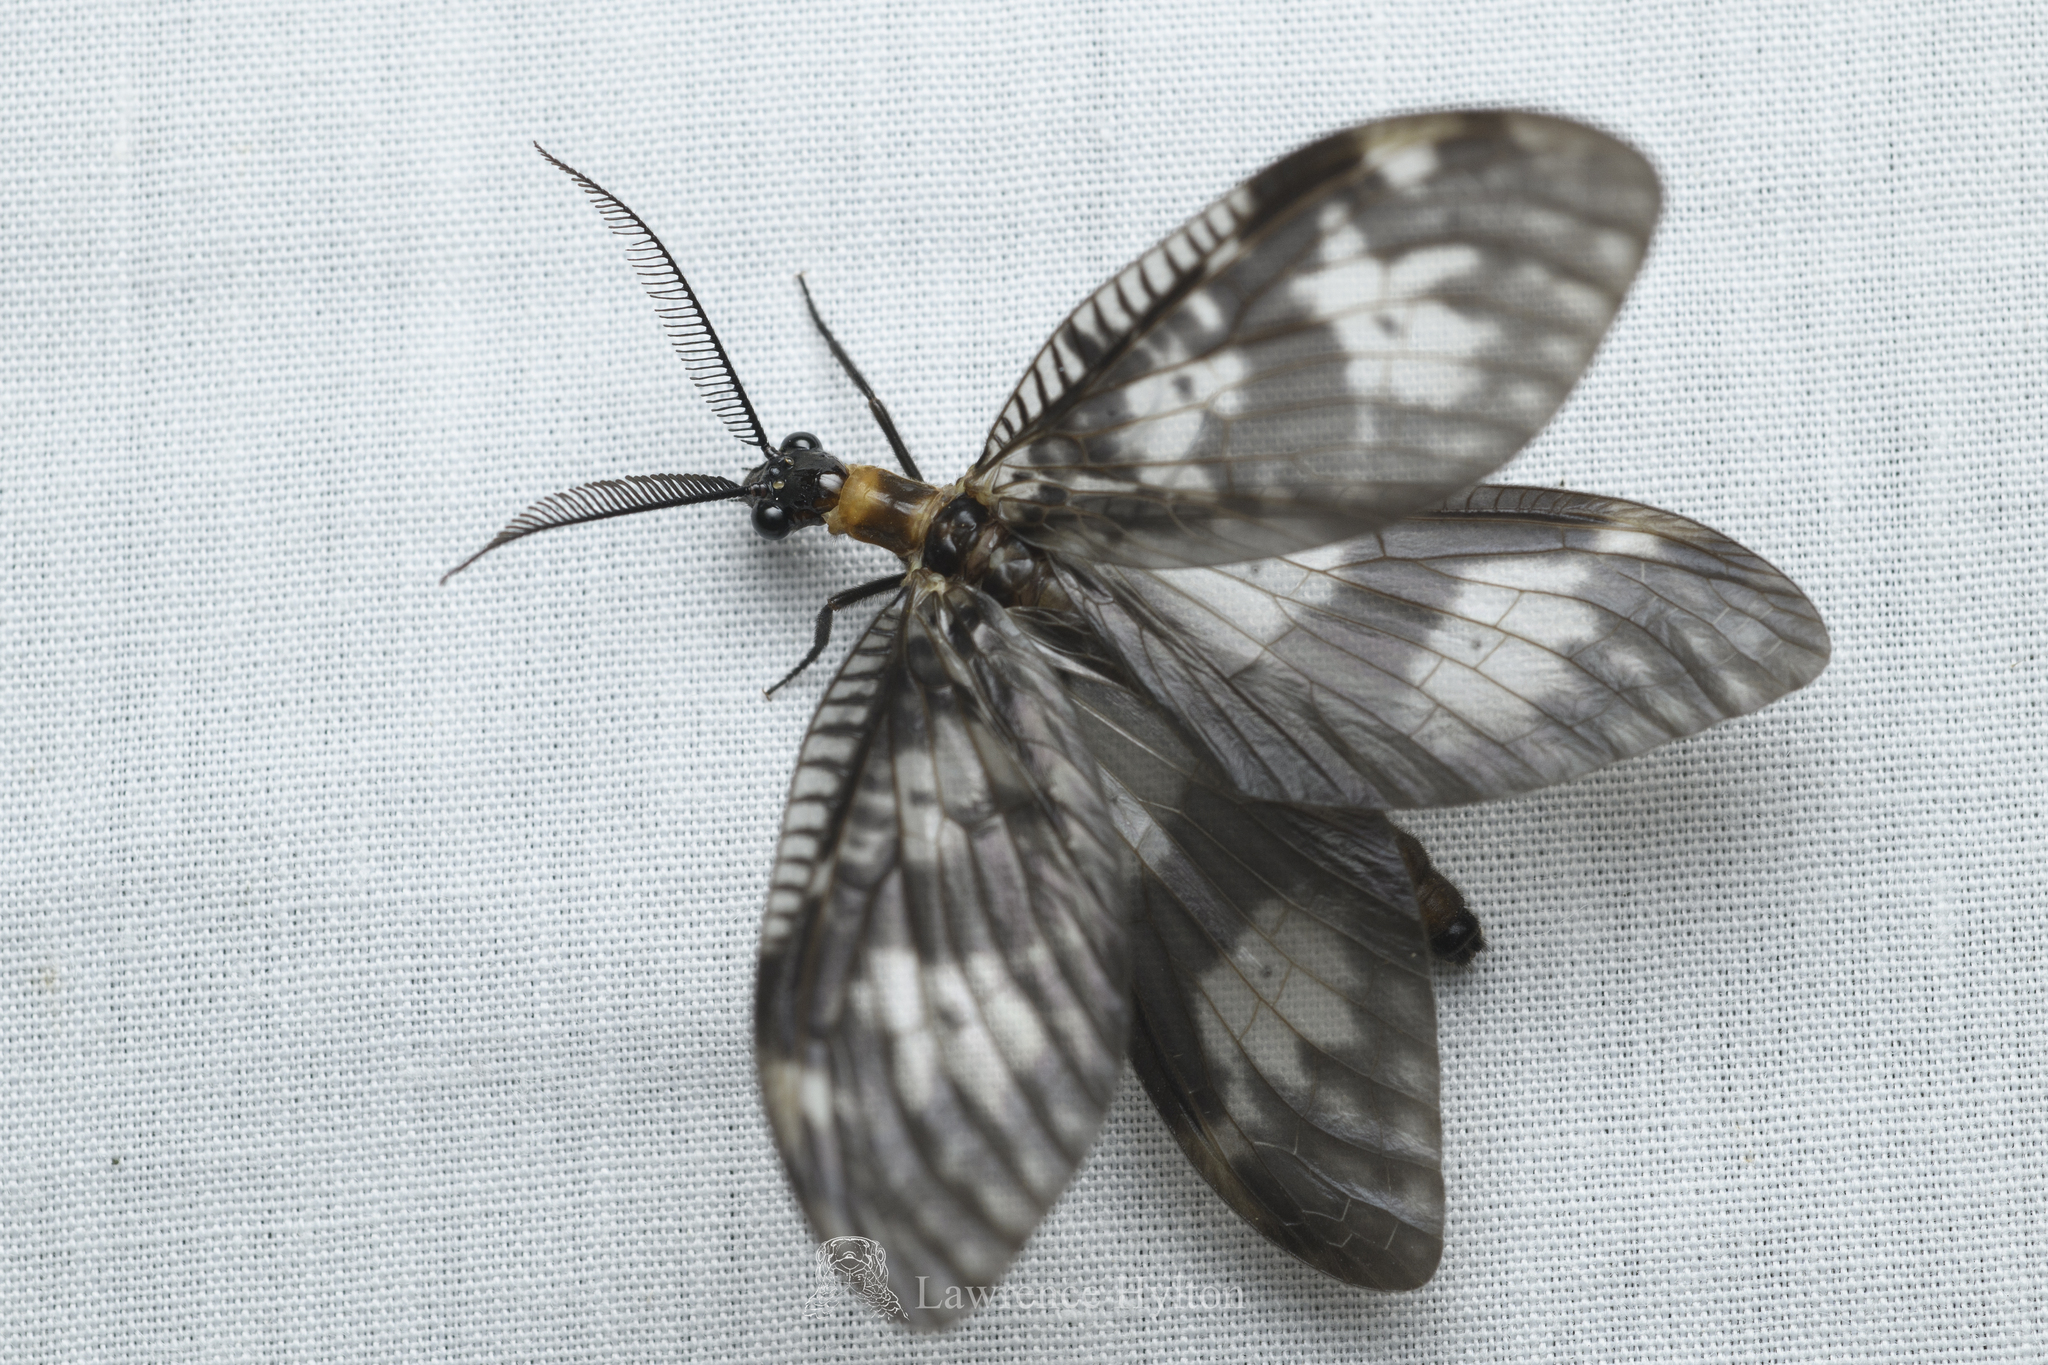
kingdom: Animalia
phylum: Arthropoda
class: Insecta
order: Megaloptera
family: Corydalidae
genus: Neochauliodes
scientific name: Neochauliodes koreanus
